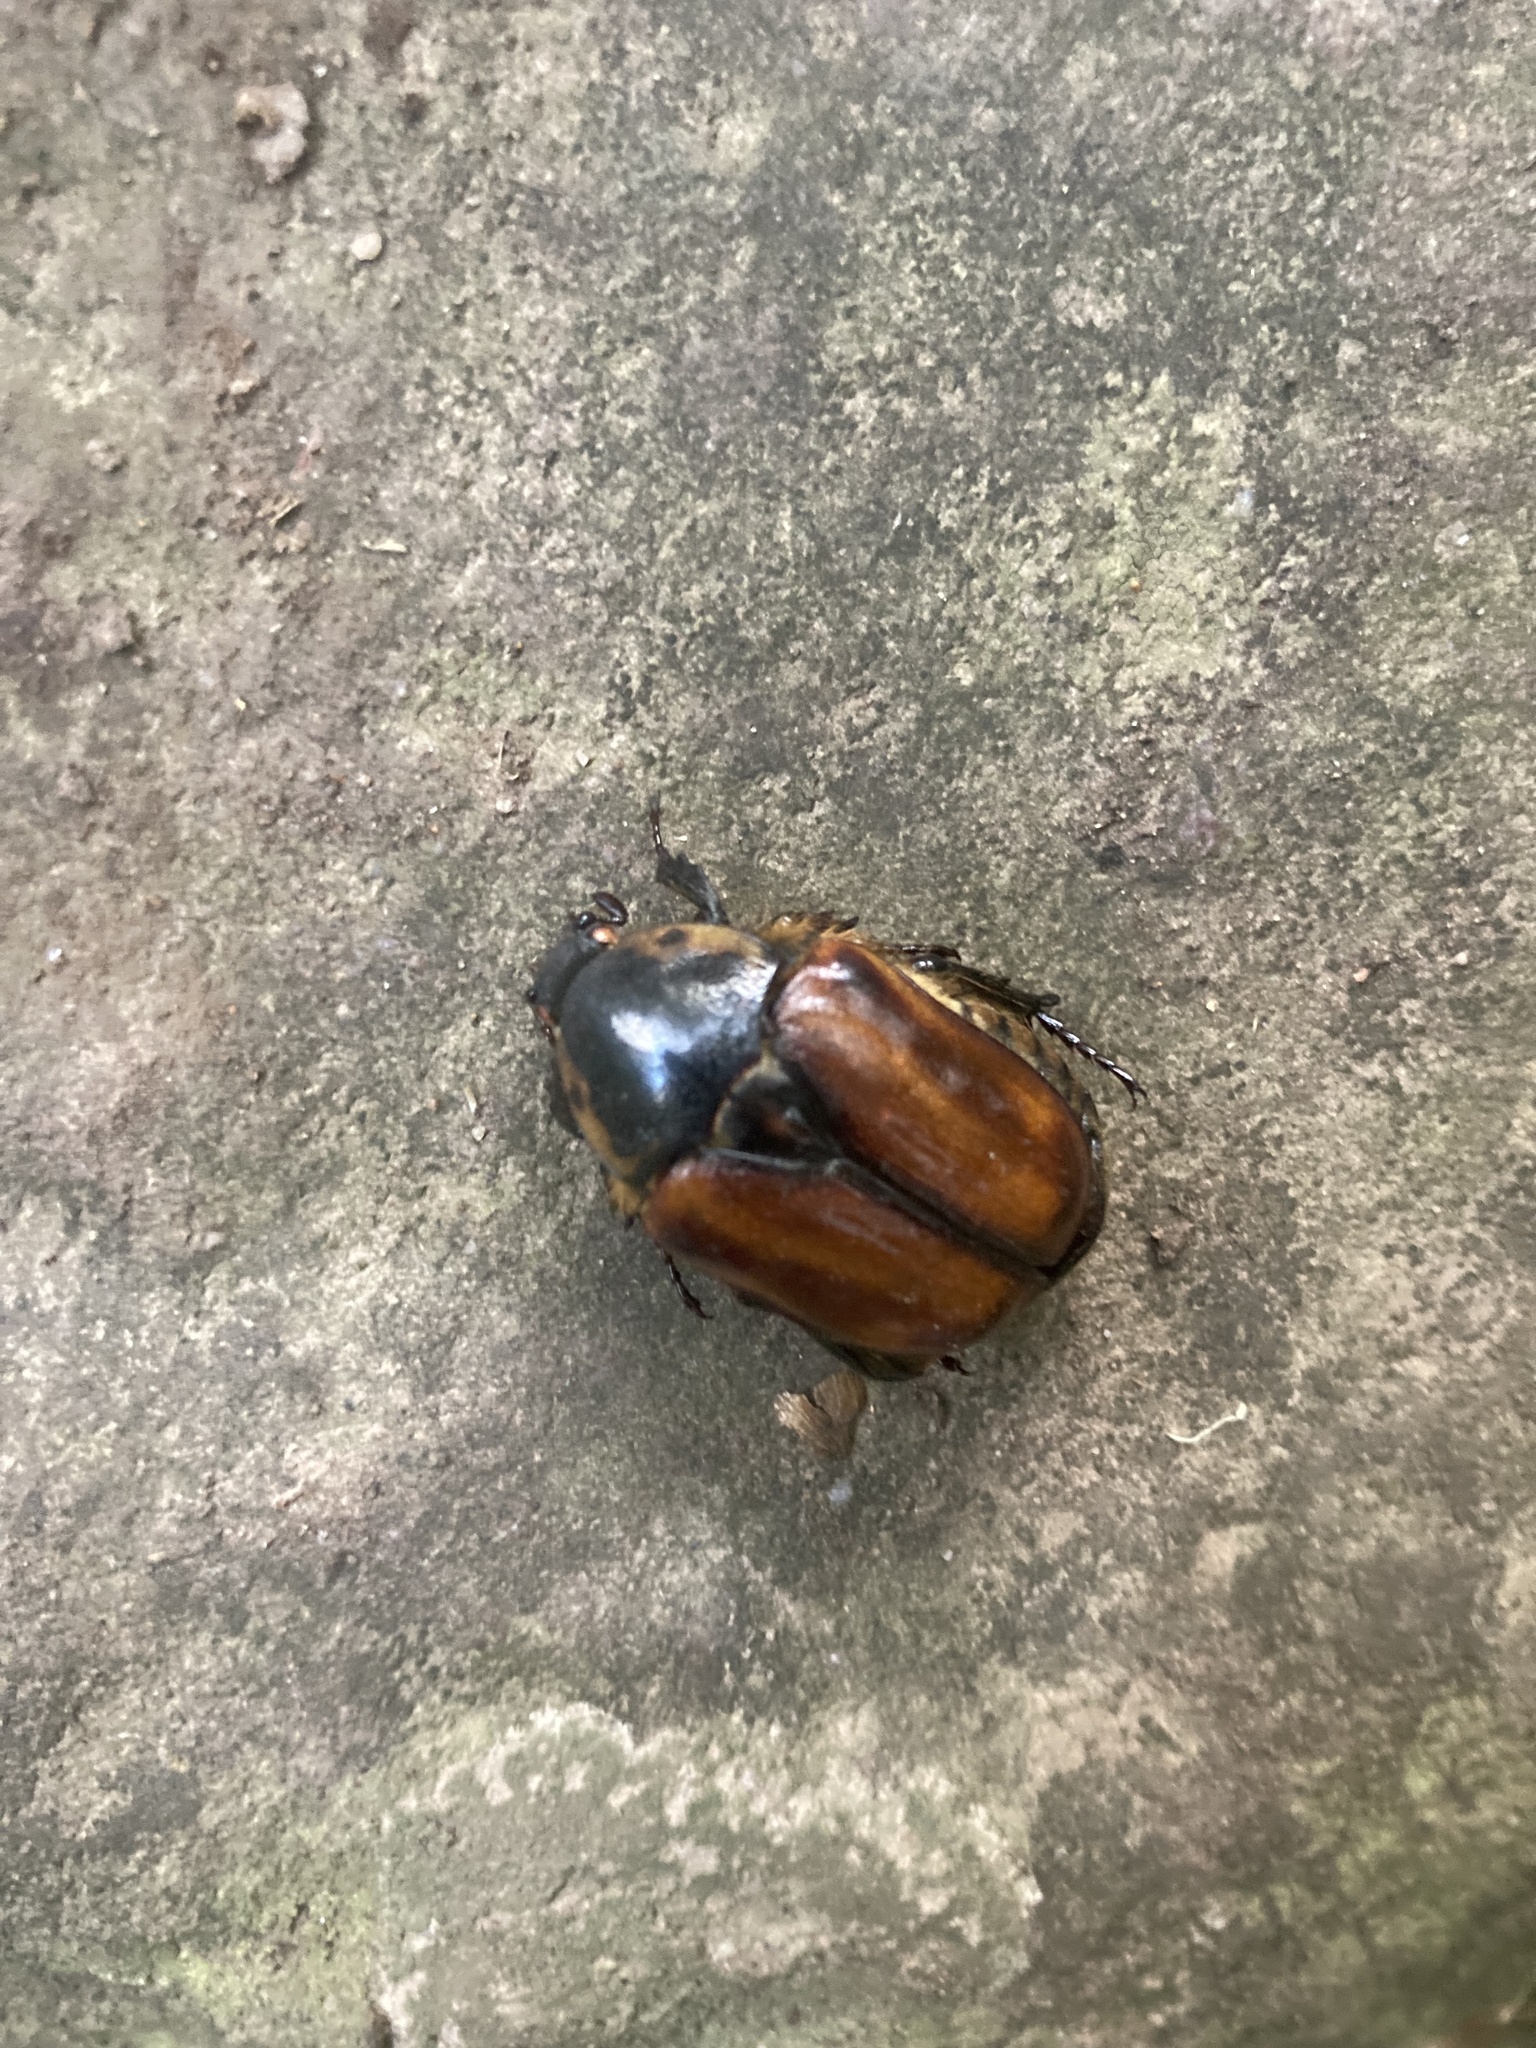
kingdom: Animalia
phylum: Arthropoda
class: Insecta
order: Coleoptera
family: Scarabaeidae
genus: Chondropyga
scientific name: Chondropyga gulosa
